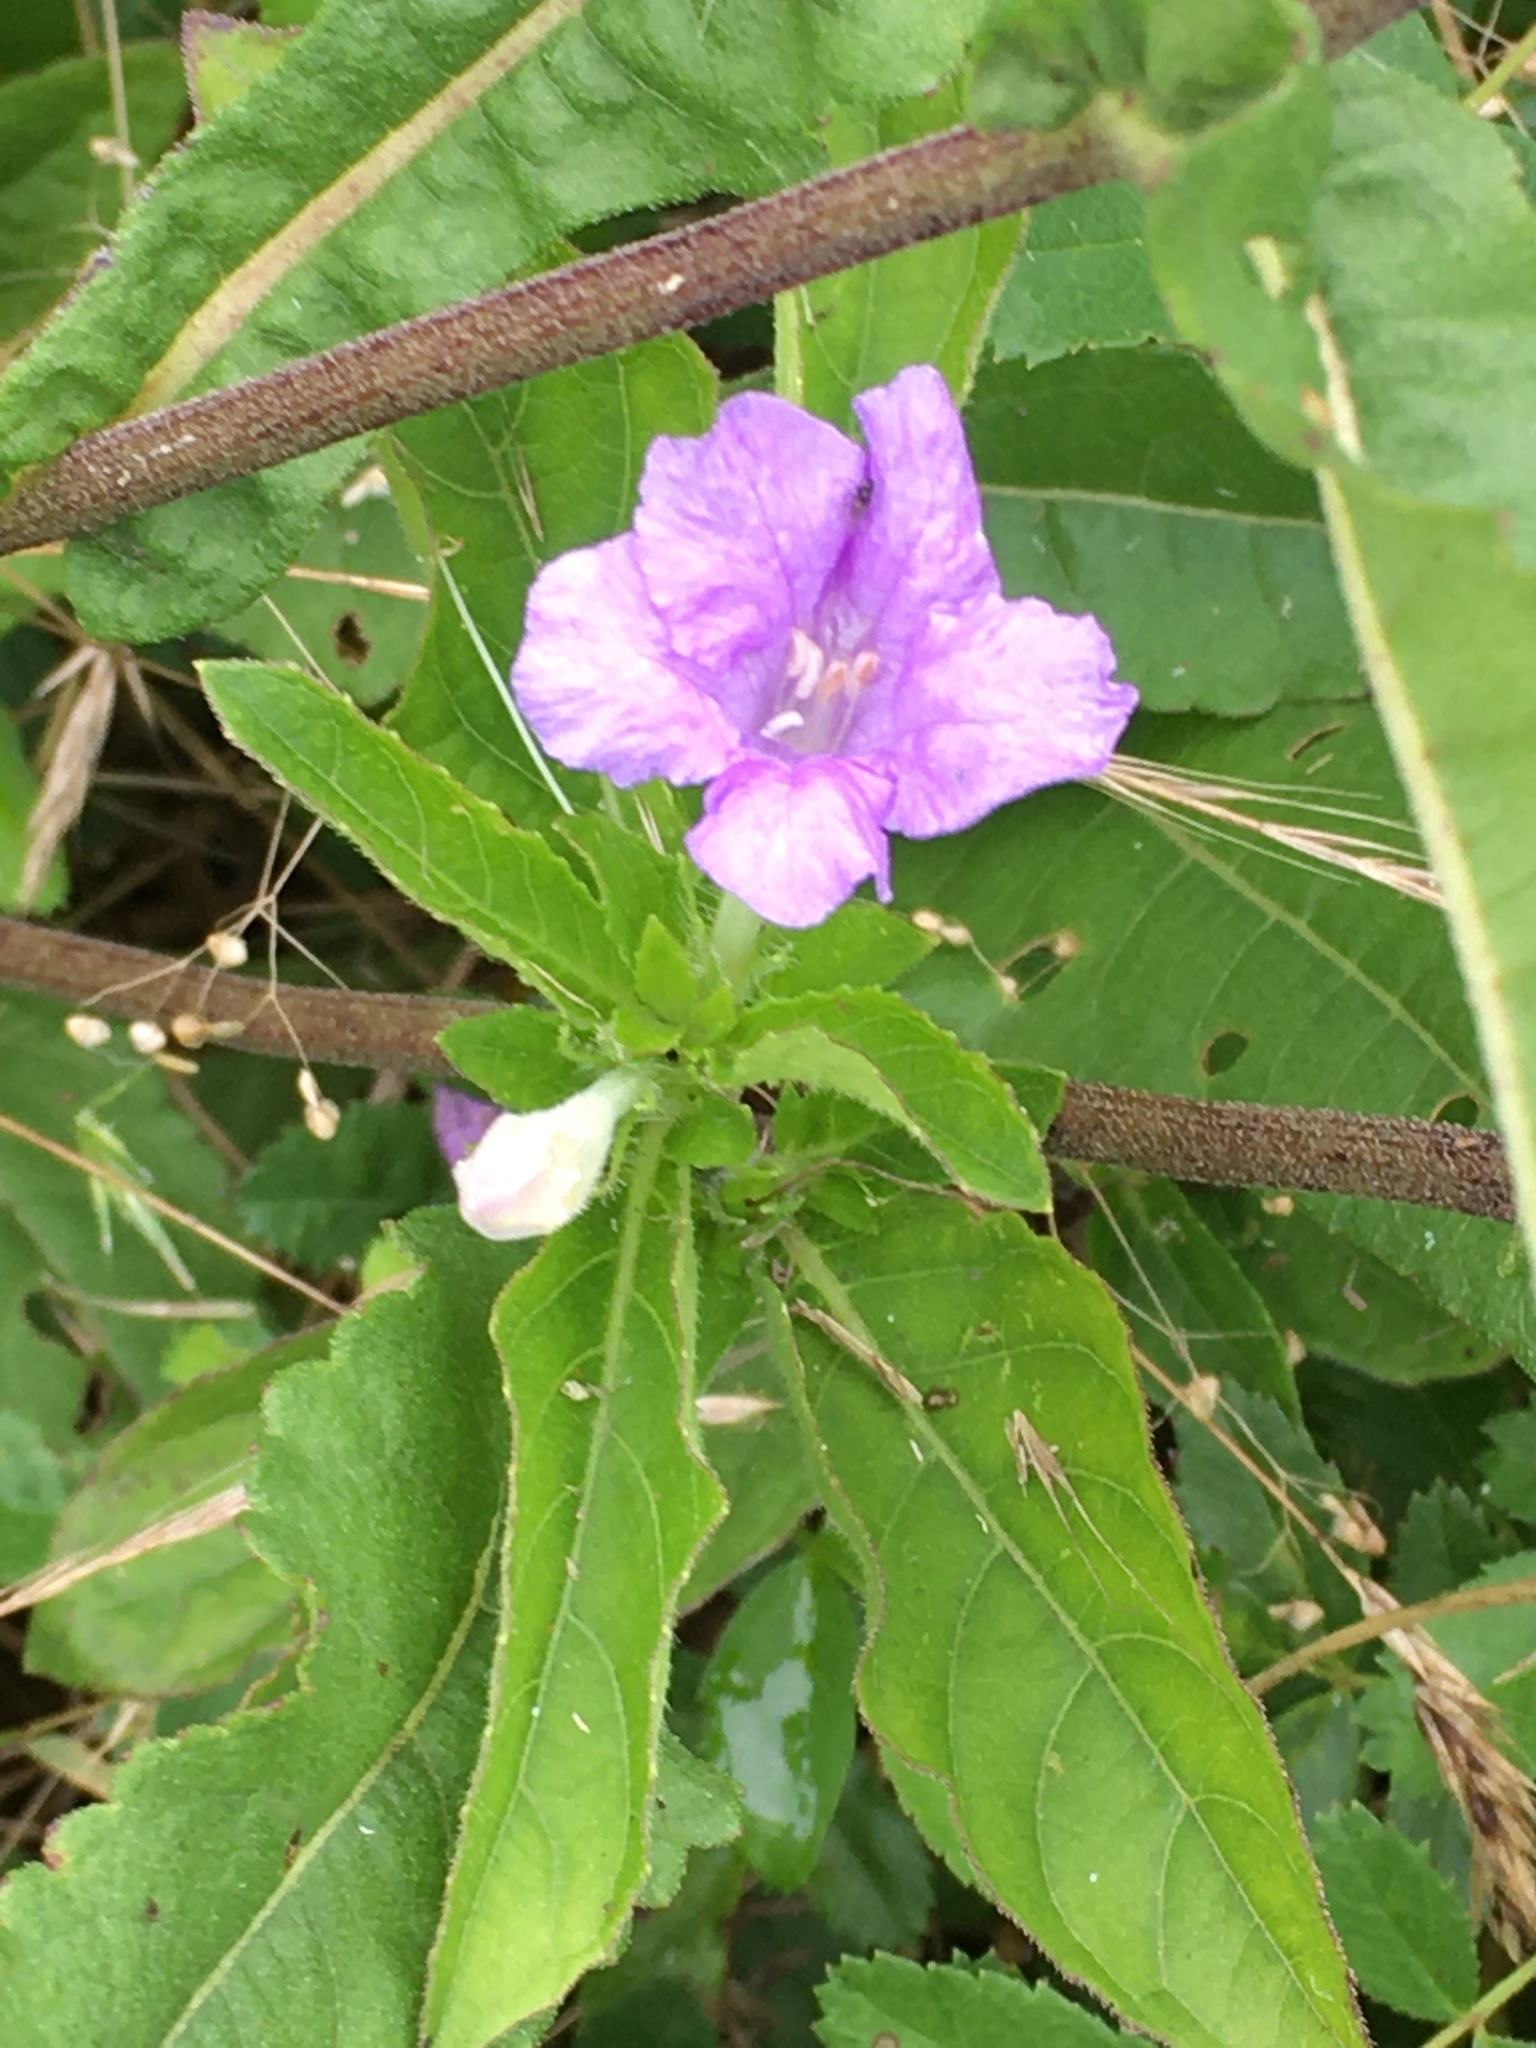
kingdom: Plantae
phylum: Tracheophyta
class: Magnoliopsida
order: Lamiales
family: Acanthaceae
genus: Ruellia
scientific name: Ruellia caroliniensis
